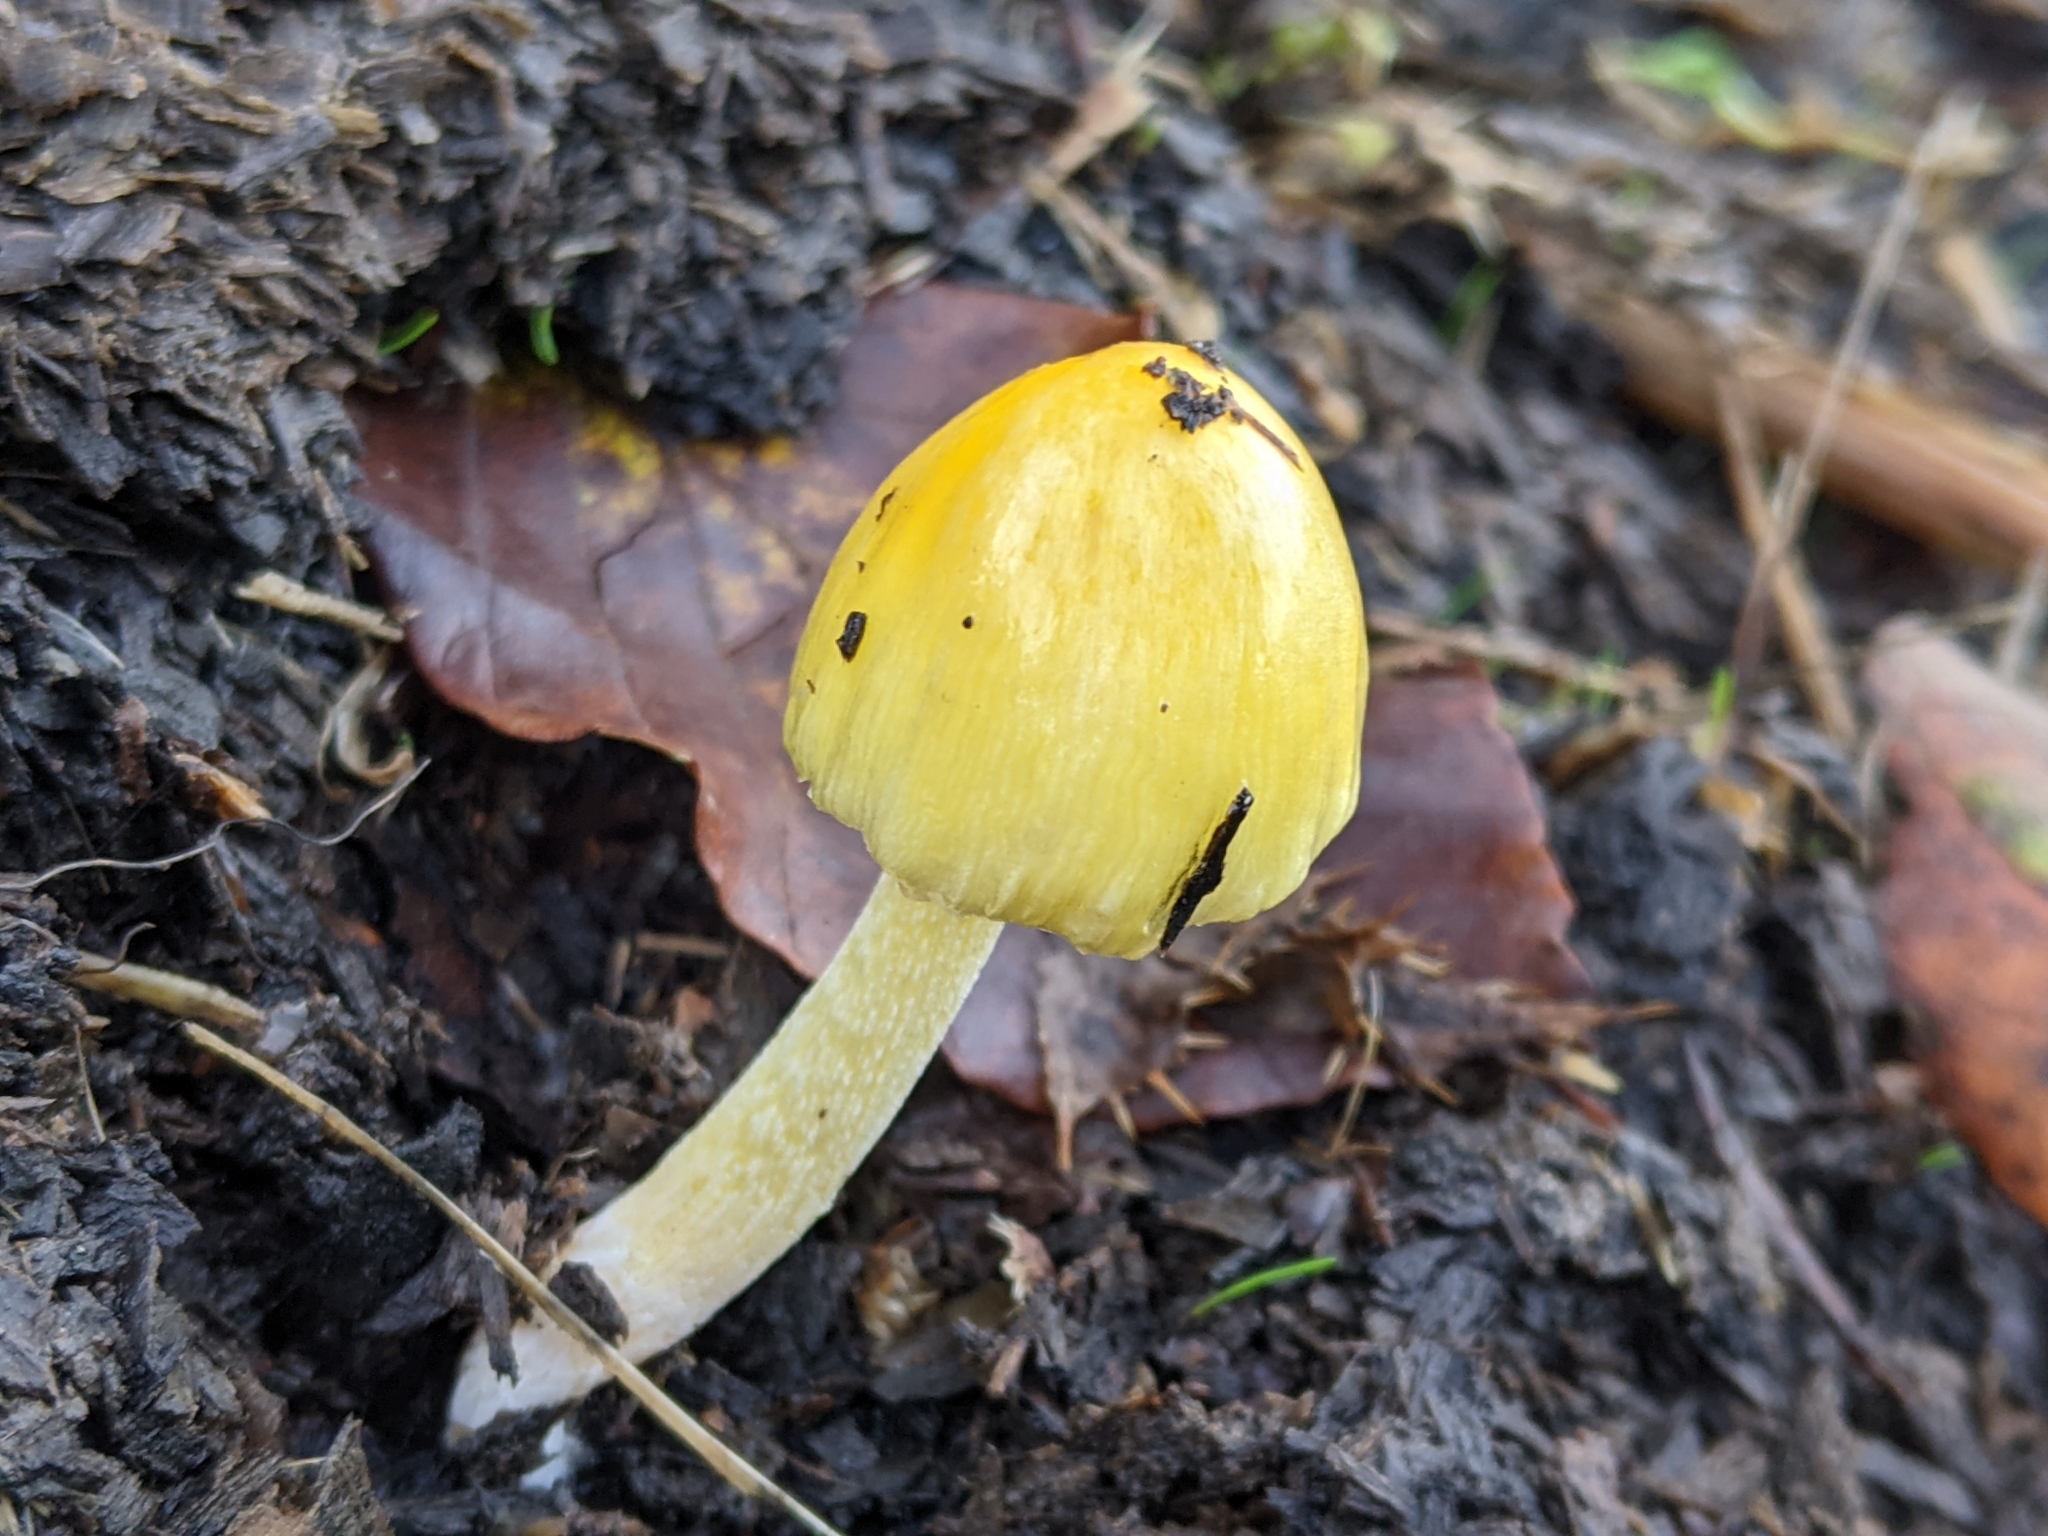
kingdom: Fungi
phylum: Basidiomycota
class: Agaricomycetes
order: Agaricales
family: Bolbitiaceae
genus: Bolbitius
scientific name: Bolbitius titubans
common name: Yellow fieldcap
